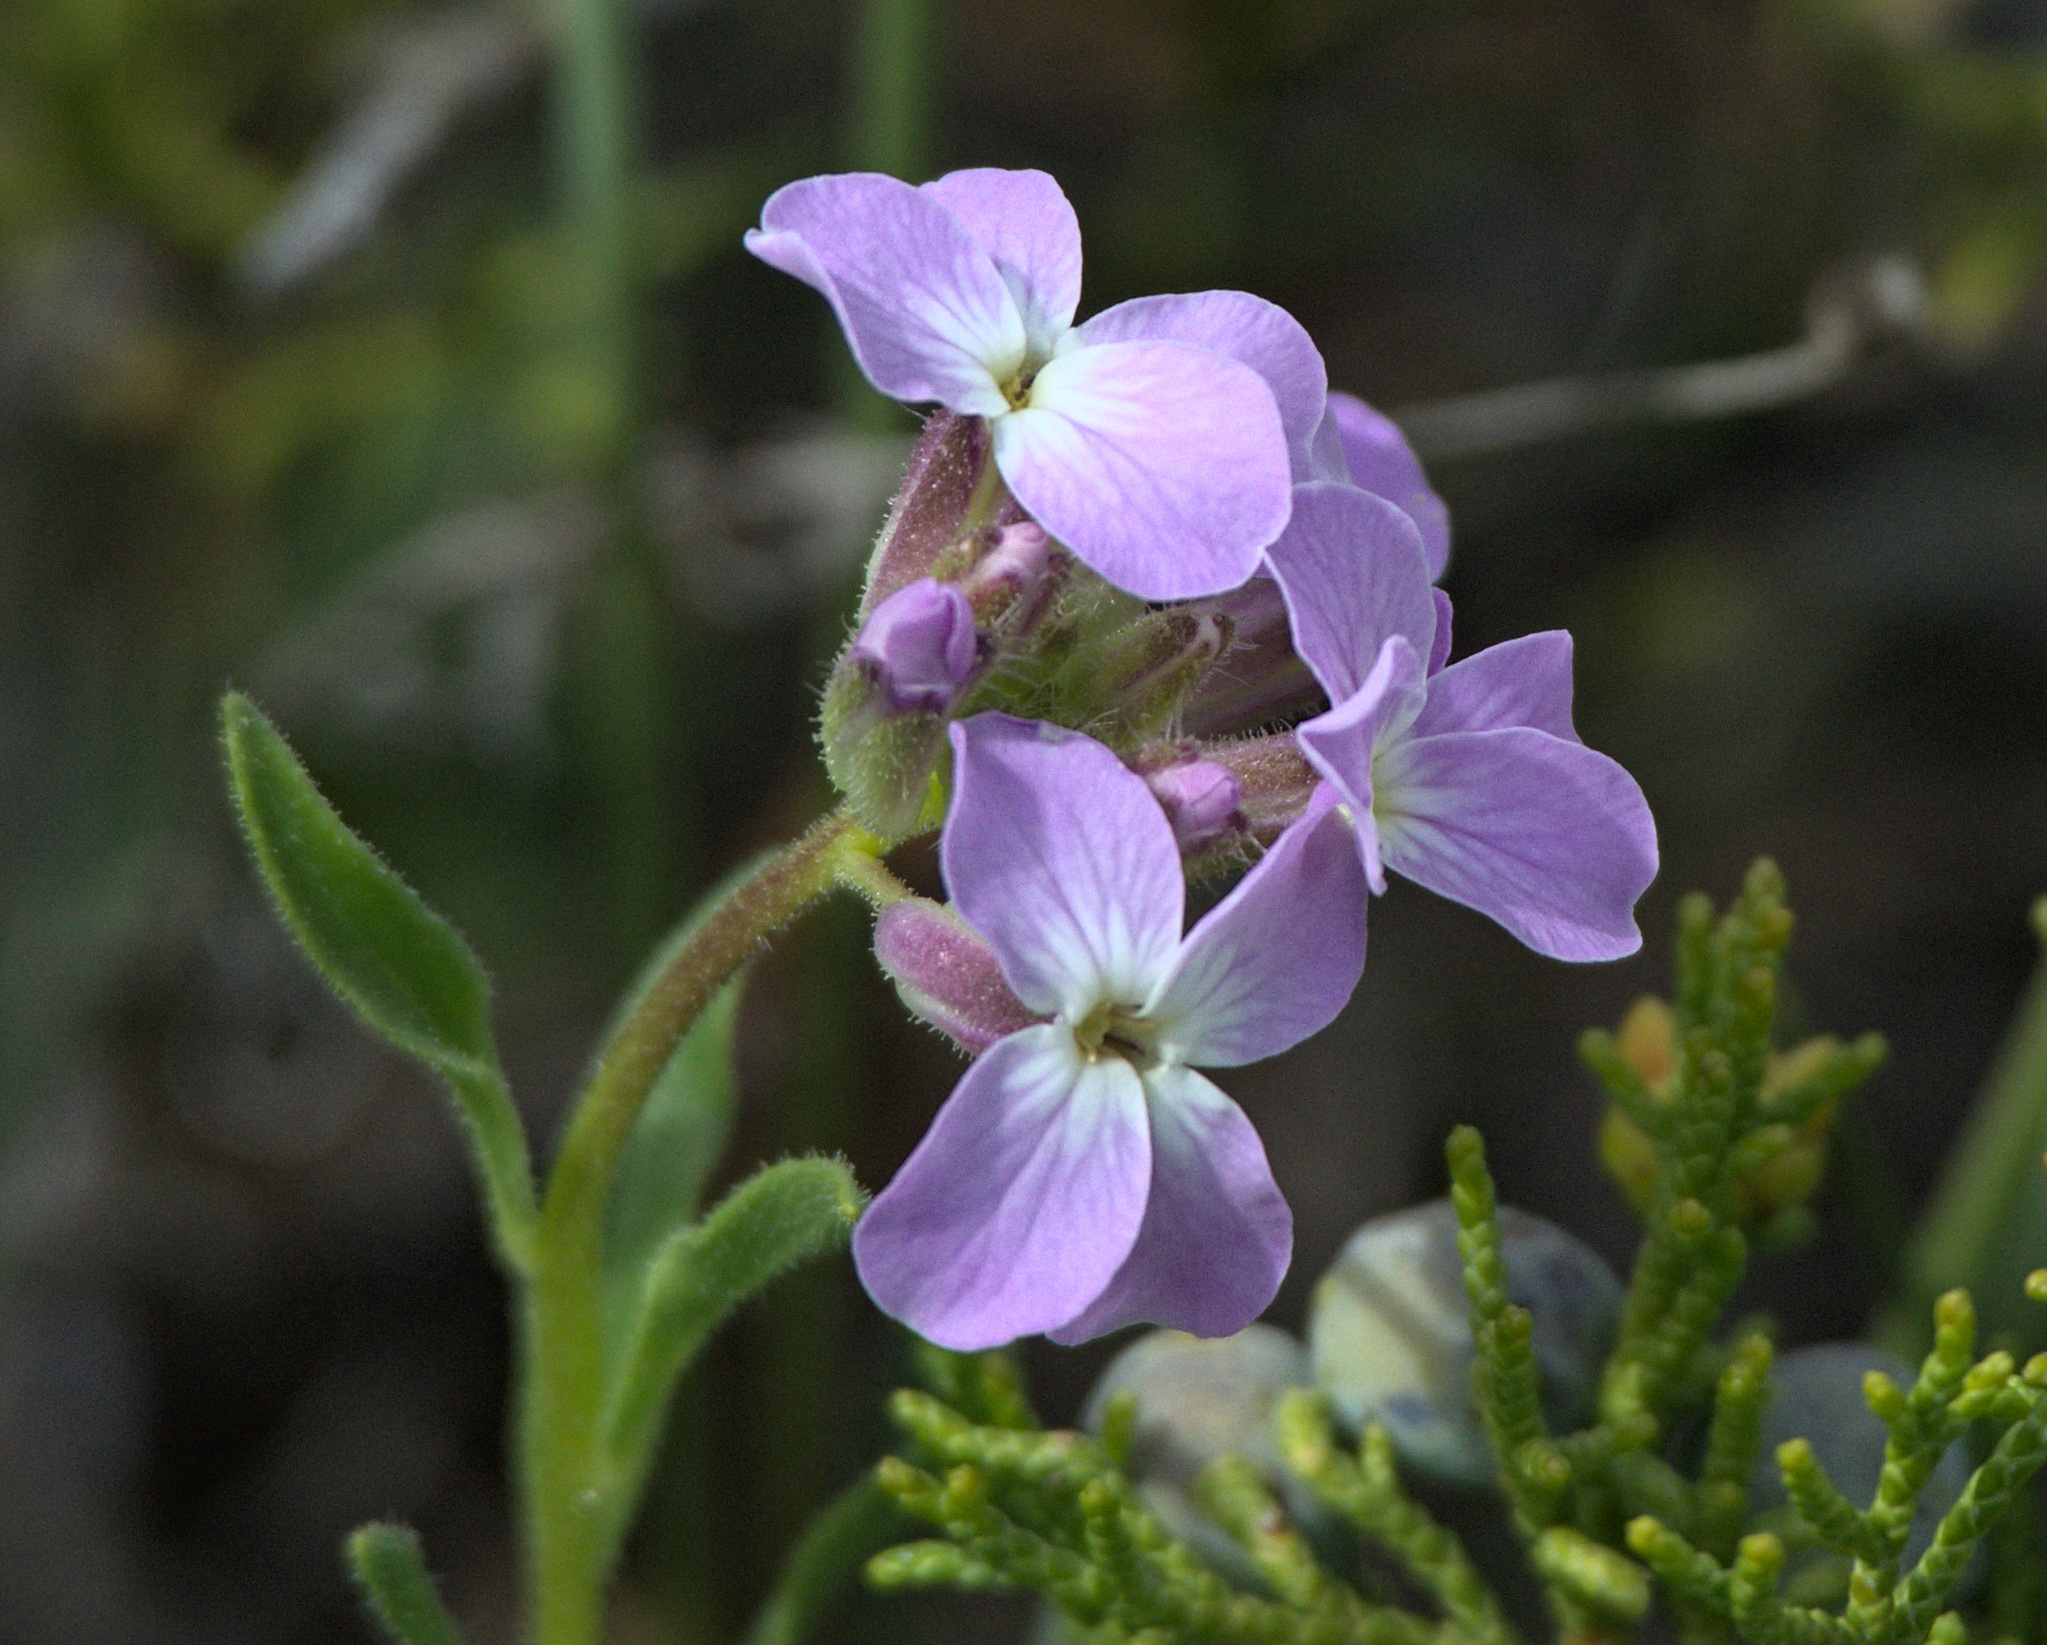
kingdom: Plantae
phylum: Tracheophyta
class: Magnoliopsida
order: Brassicales
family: Brassicaceae
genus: Clausia
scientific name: Clausia aprica
